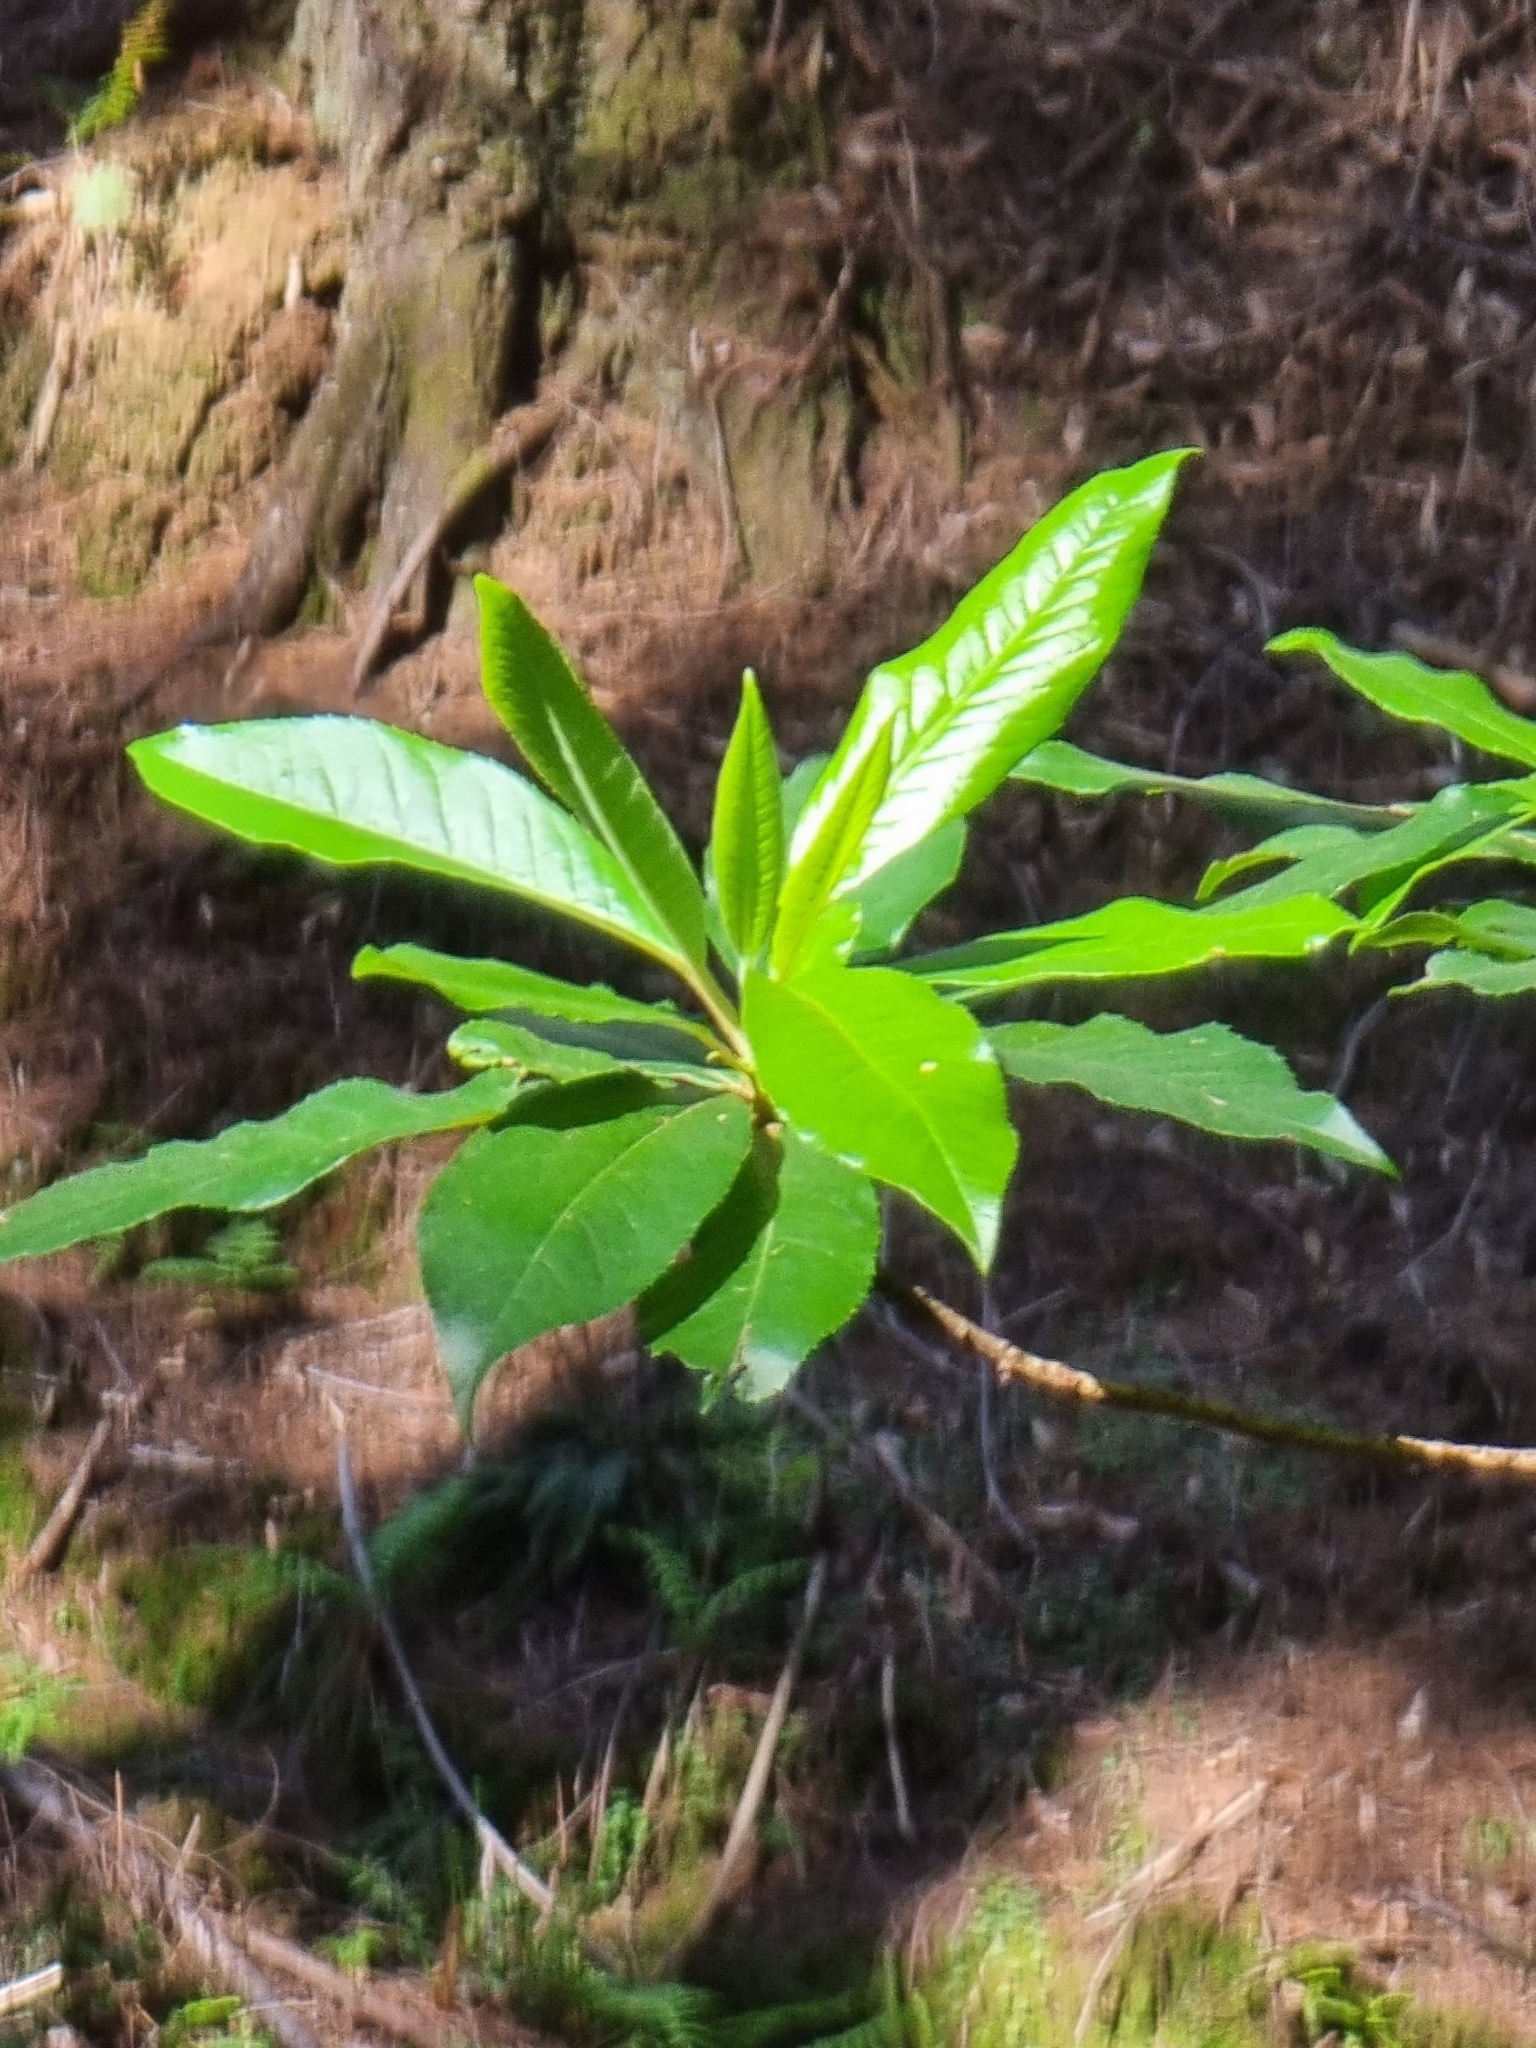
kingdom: Plantae
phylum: Tracheophyta
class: Magnoliopsida
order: Ericales
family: Clethraceae
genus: Clethra
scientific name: Clethra arborea
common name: Lily-of-the-valley-tree
